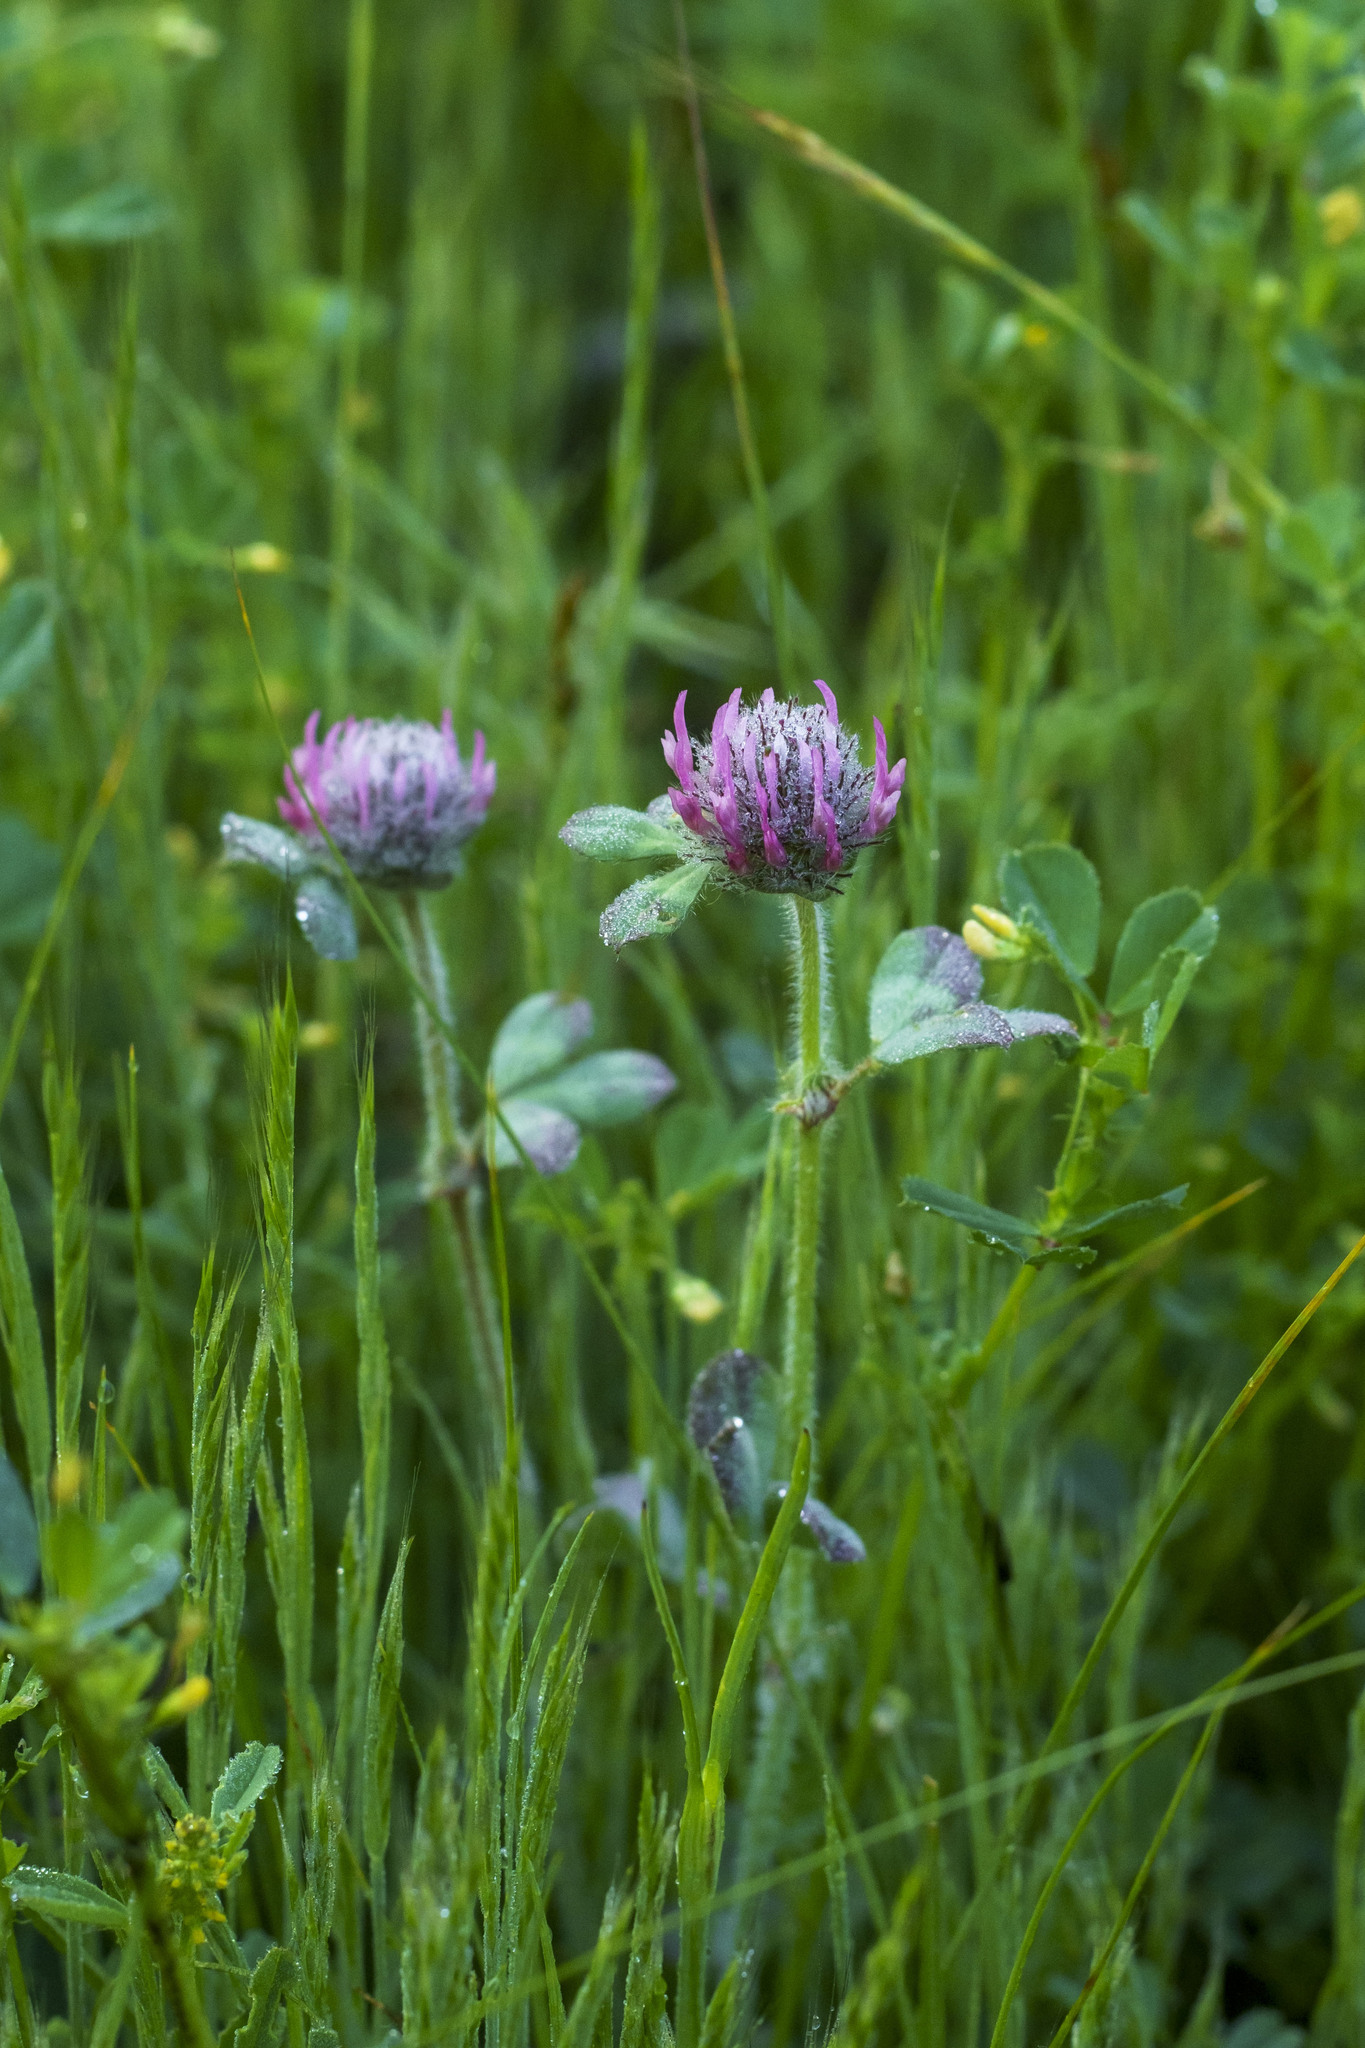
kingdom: Plantae
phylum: Tracheophyta
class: Magnoliopsida
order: Fabales
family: Fabaceae
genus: Trifolium
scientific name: Trifolium hirtum
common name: Rose clover
